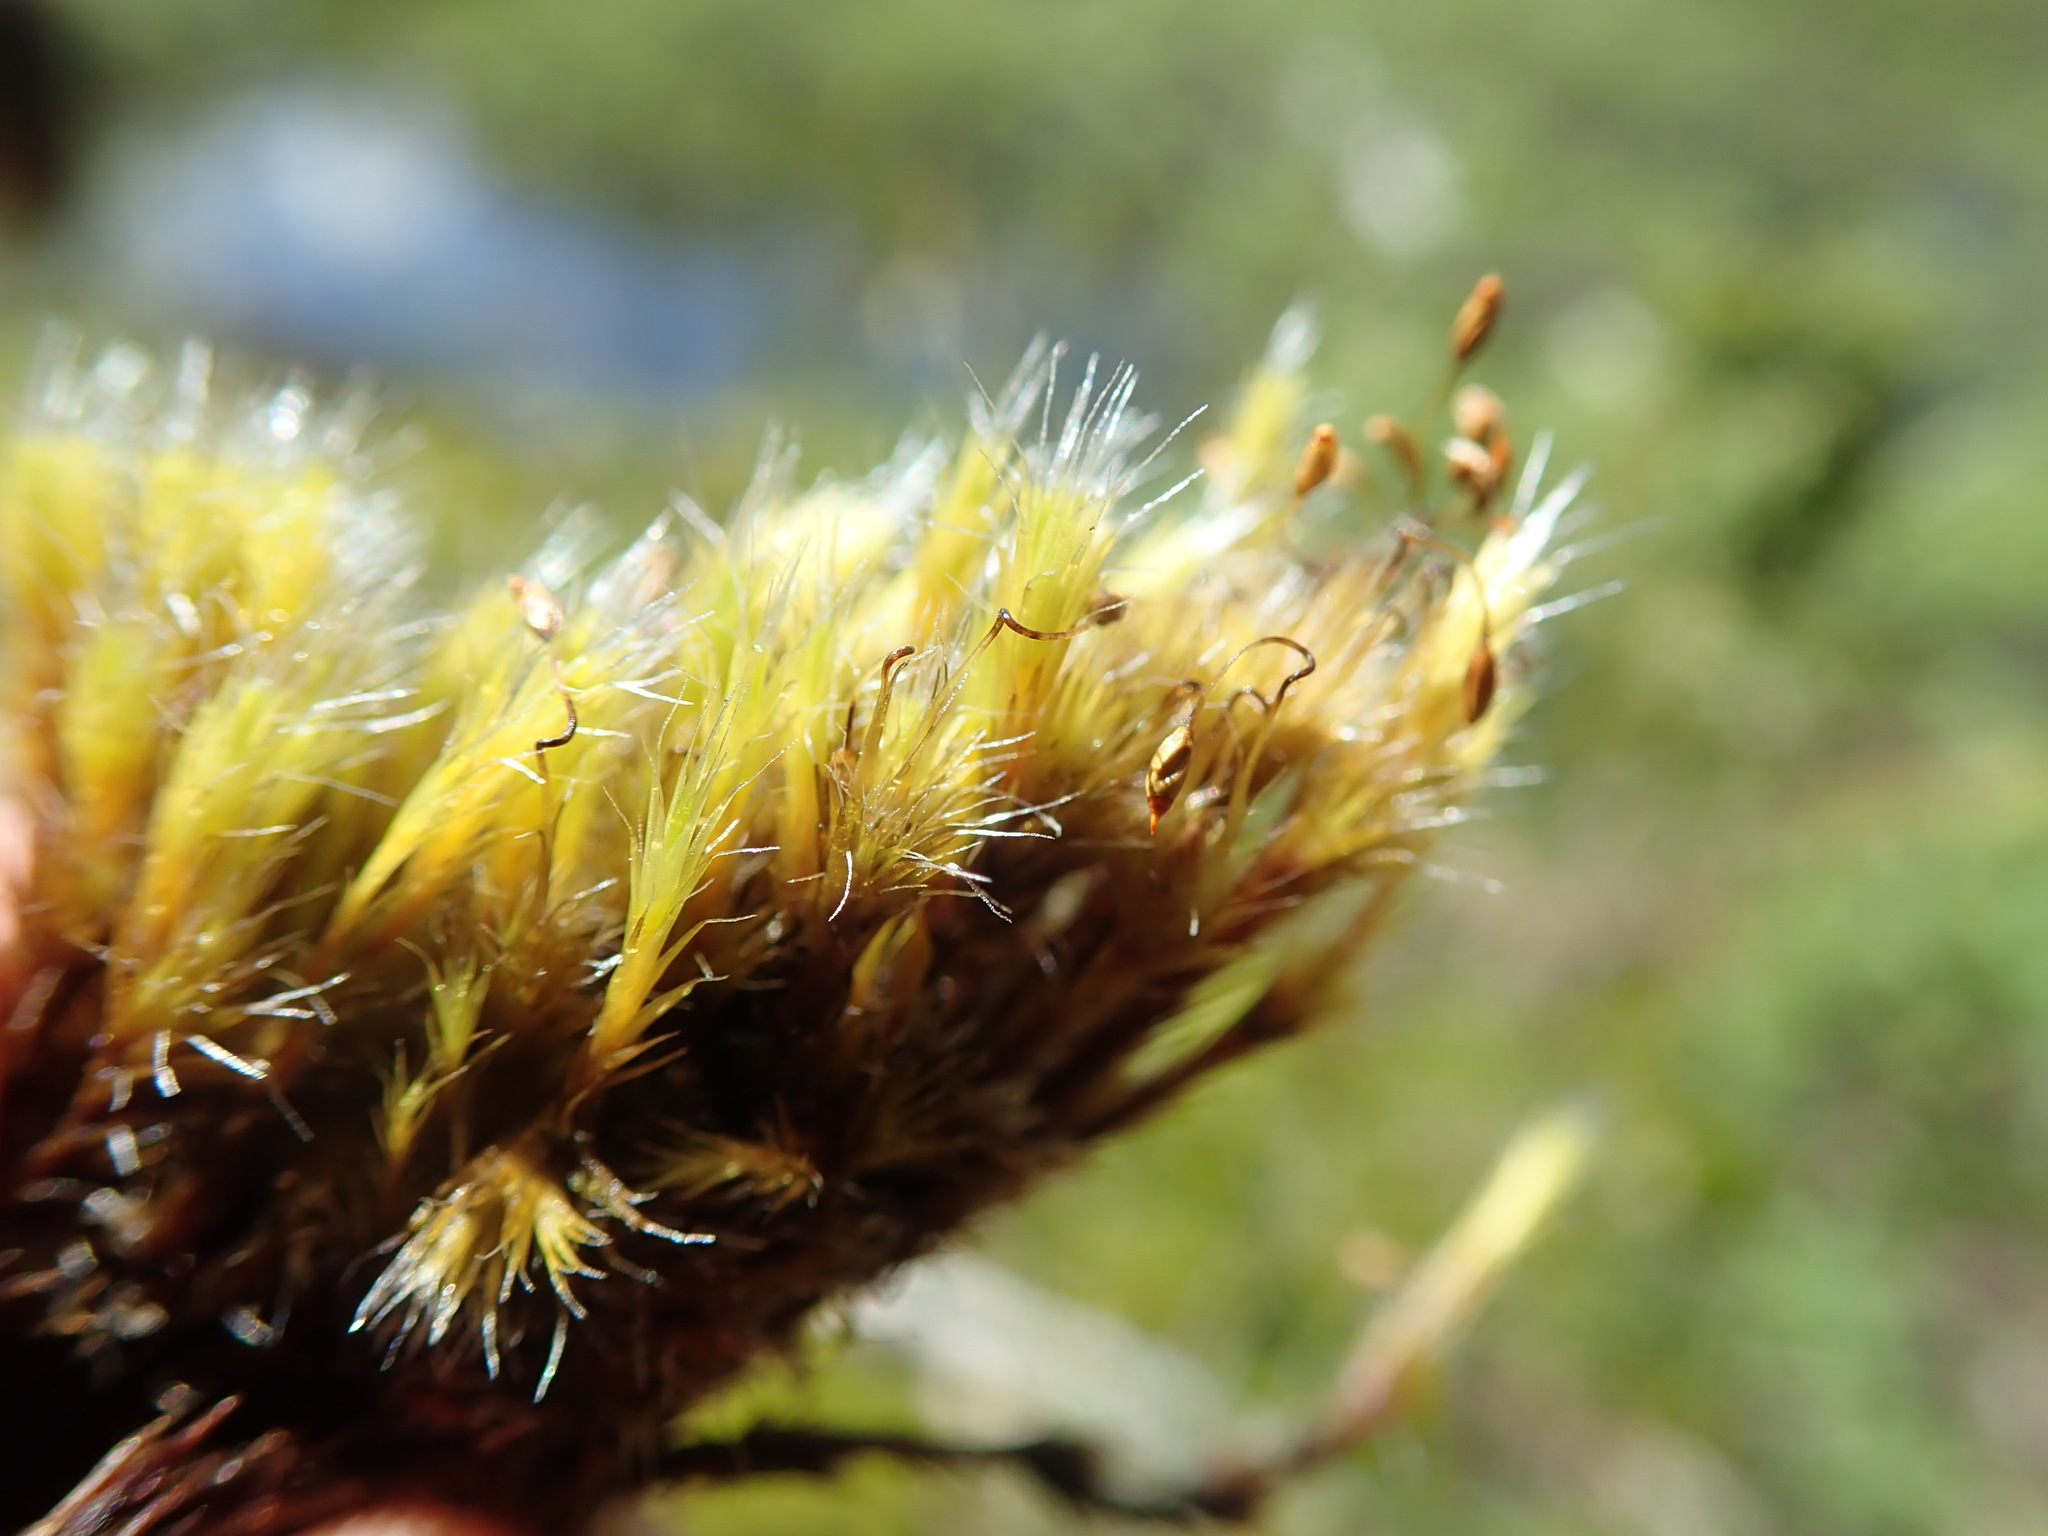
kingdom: Plantae
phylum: Bryophyta
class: Bryopsida
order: Dicranales
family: Leucobryaceae
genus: Campylopus
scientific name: Campylopus introflexus
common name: Heath star moss
